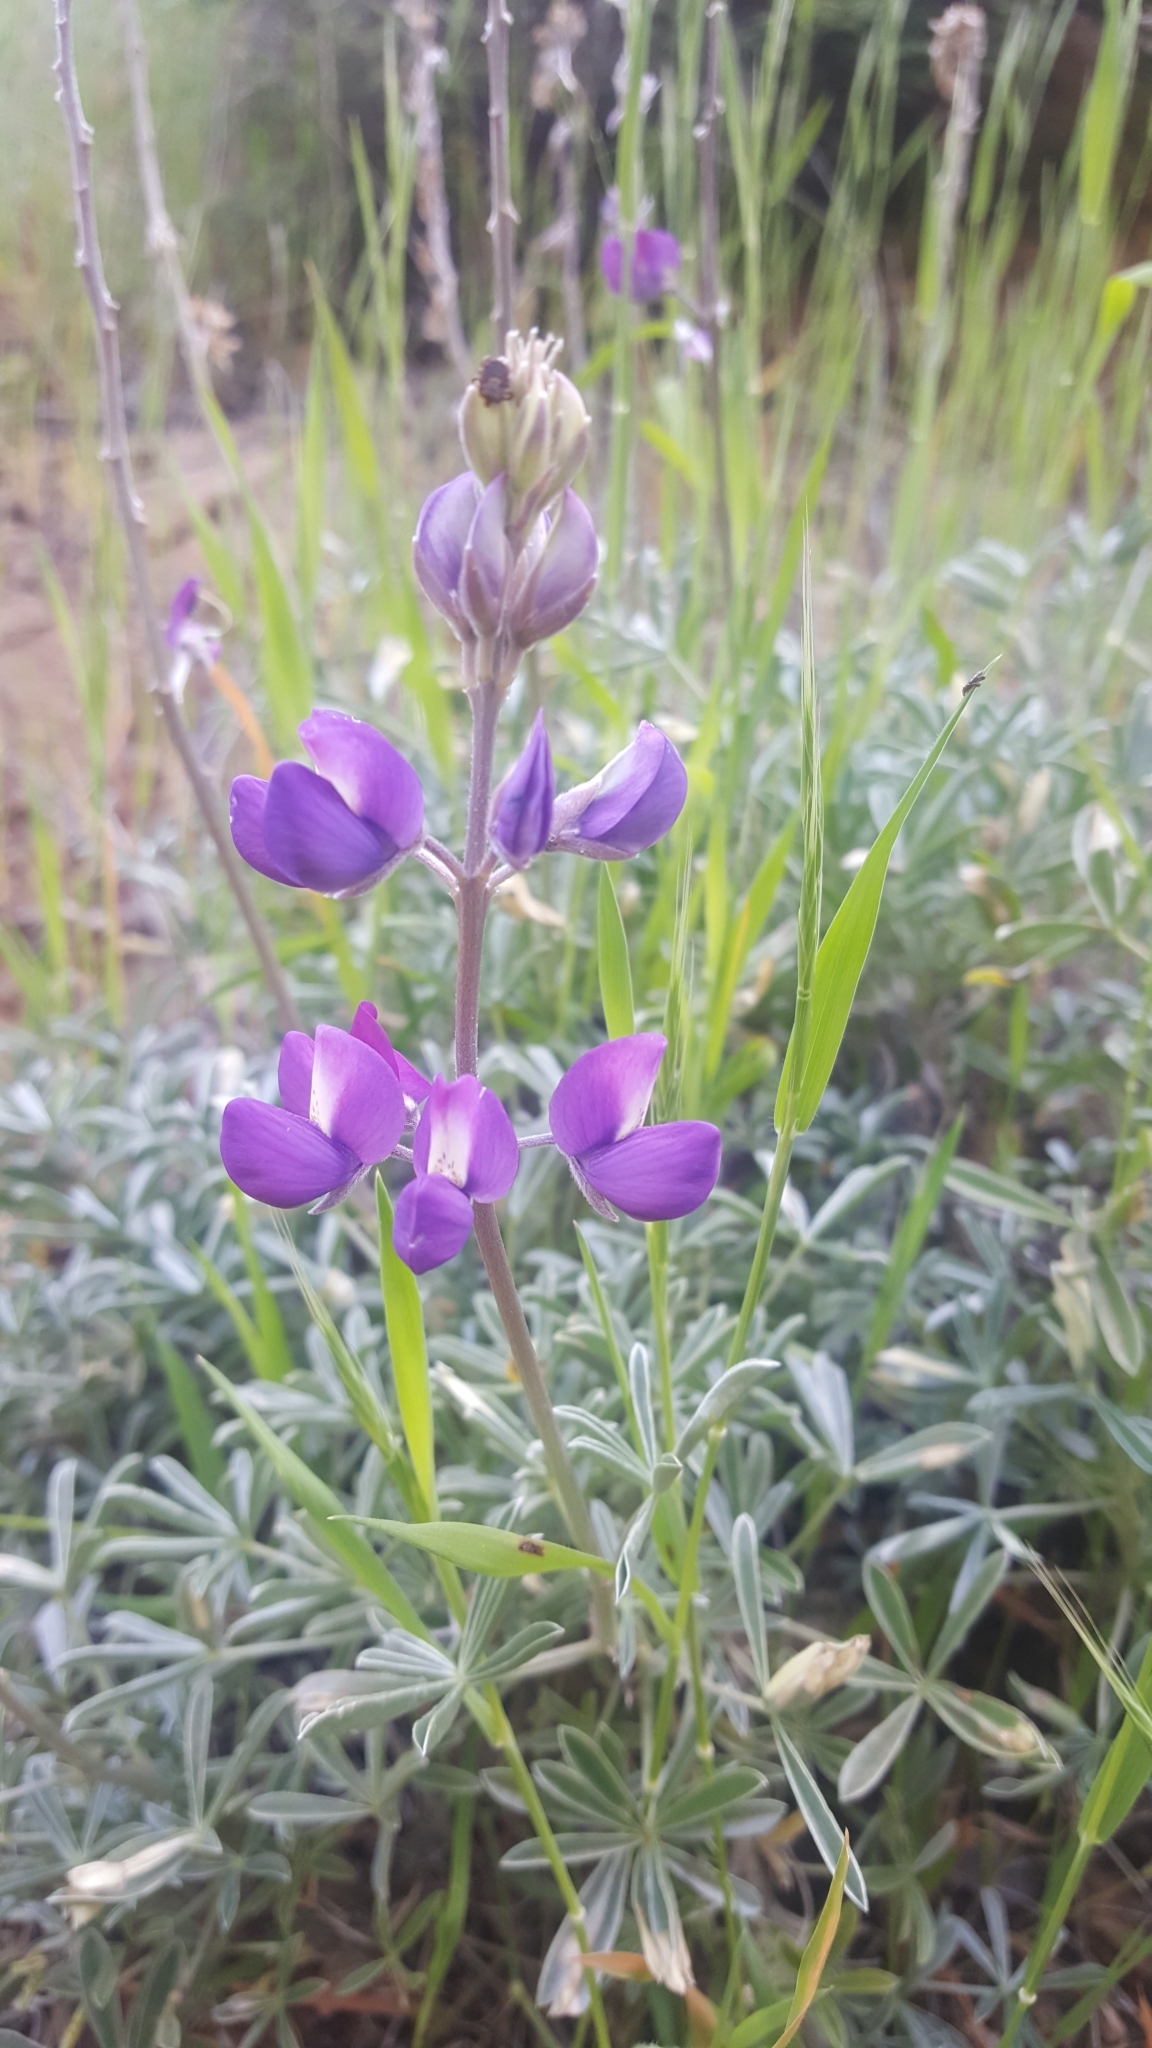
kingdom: Plantae
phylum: Tracheophyta
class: Magnoliopsida
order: Fabales
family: Fabaceae
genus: Lupinus
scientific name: Lupinus albifrons
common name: Foothill lupine
